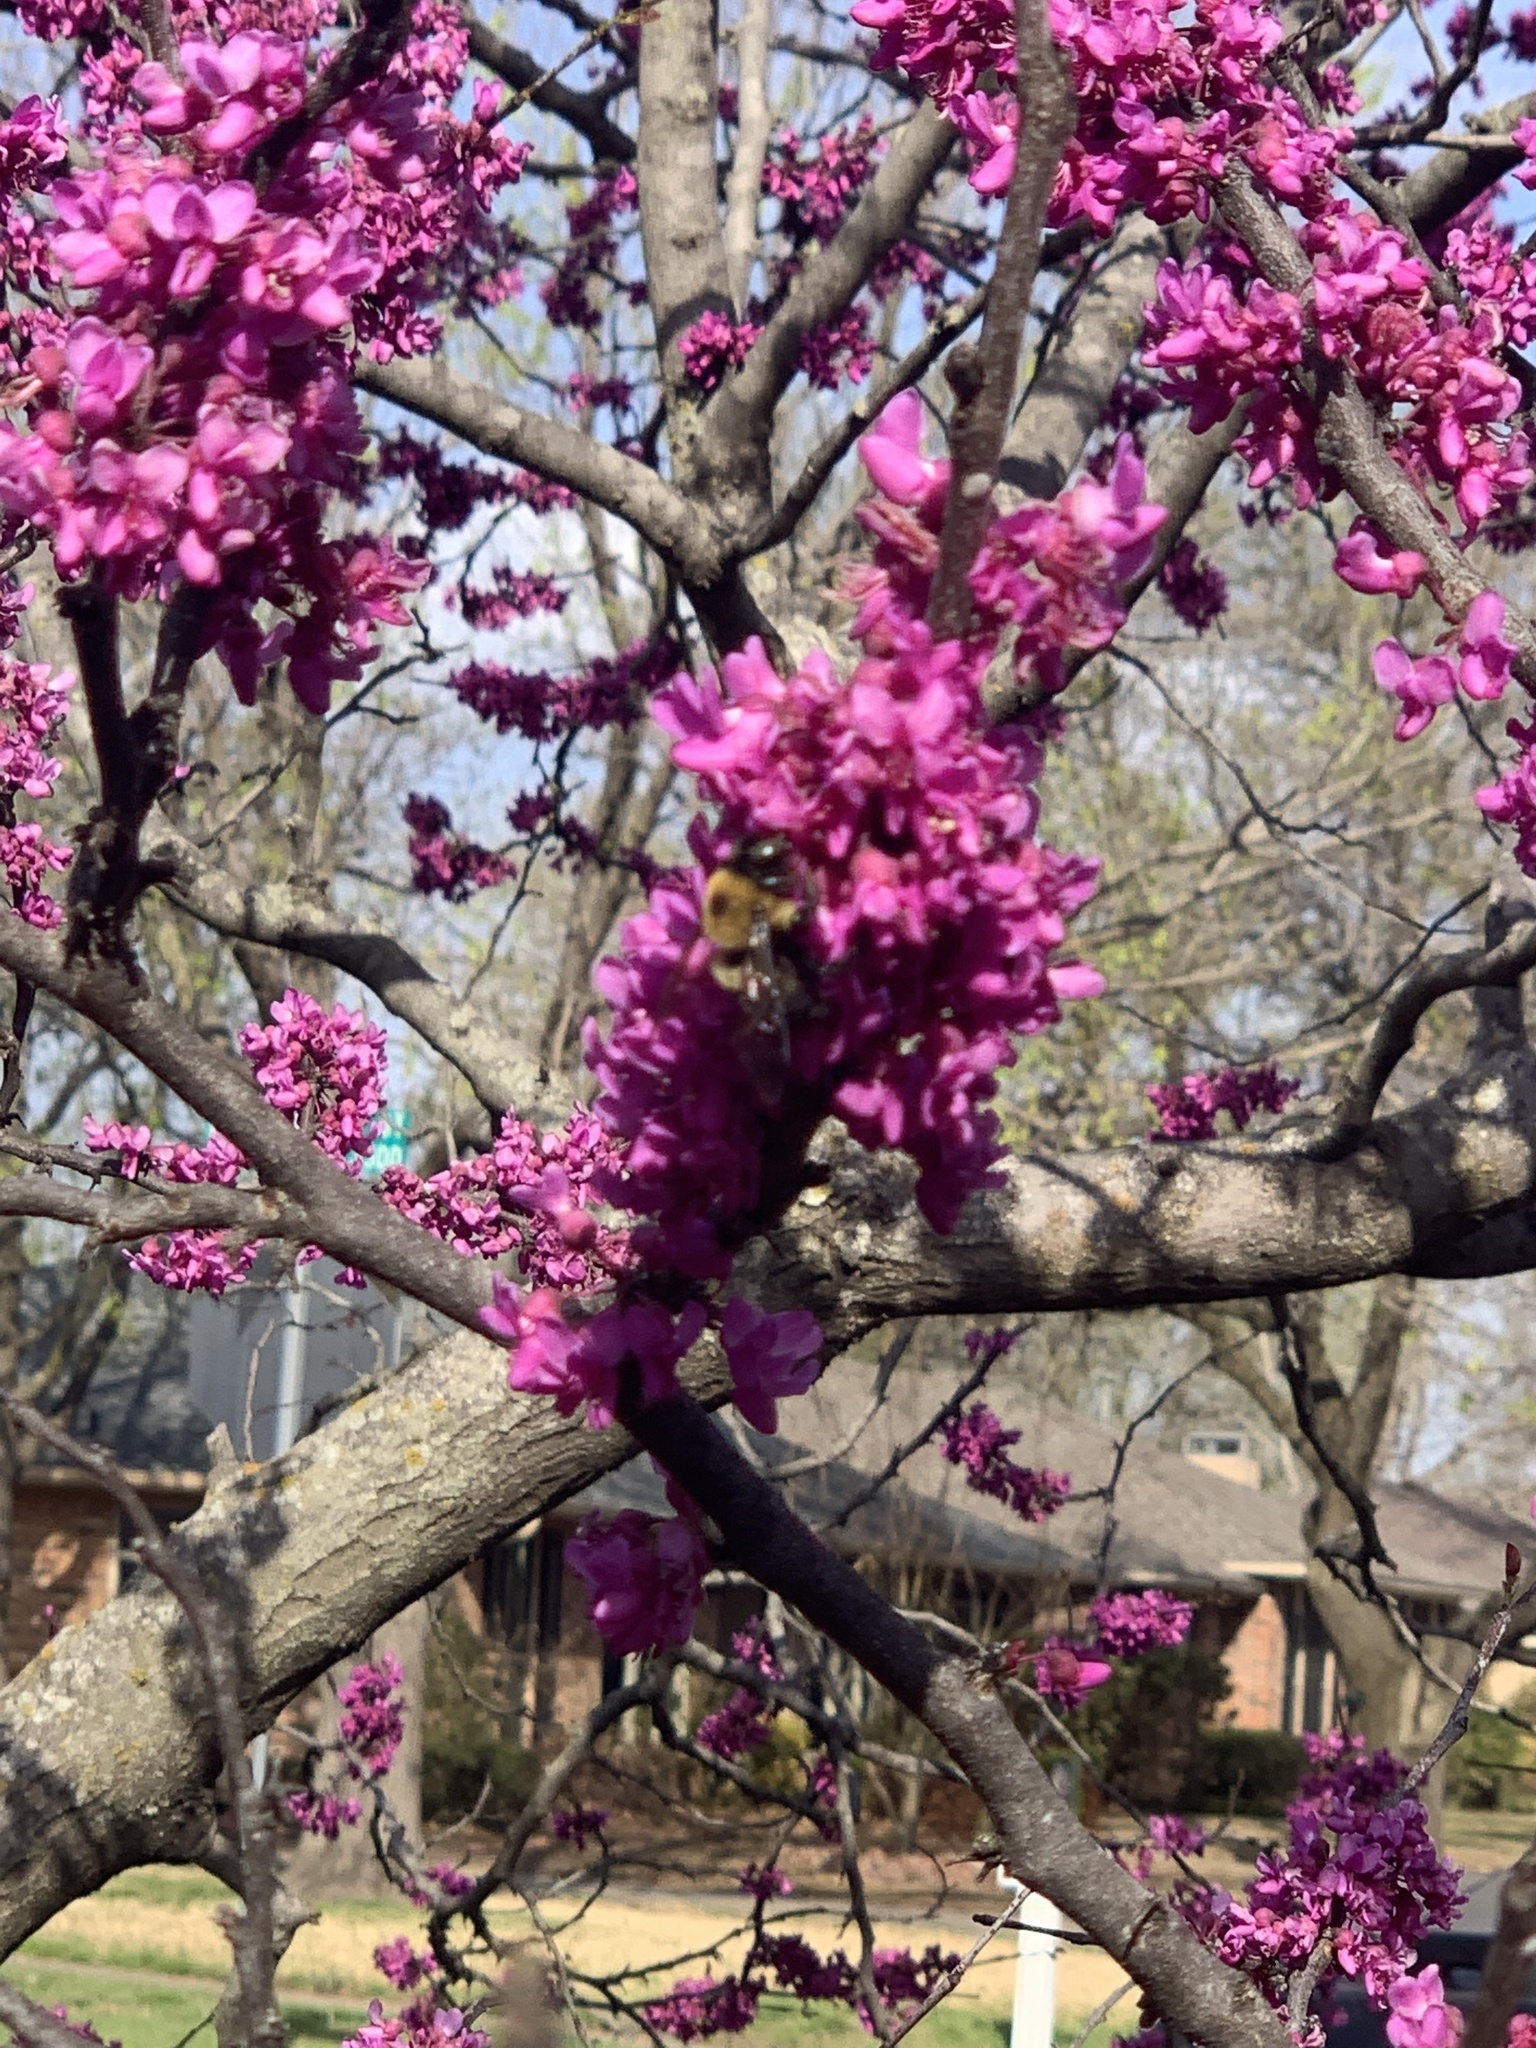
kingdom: Animalia
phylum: Arthropoda
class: Insecta
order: Hymenoptera
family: Apidae
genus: Xylocopa
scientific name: Xylocopa virginica
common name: Carpenter bee
